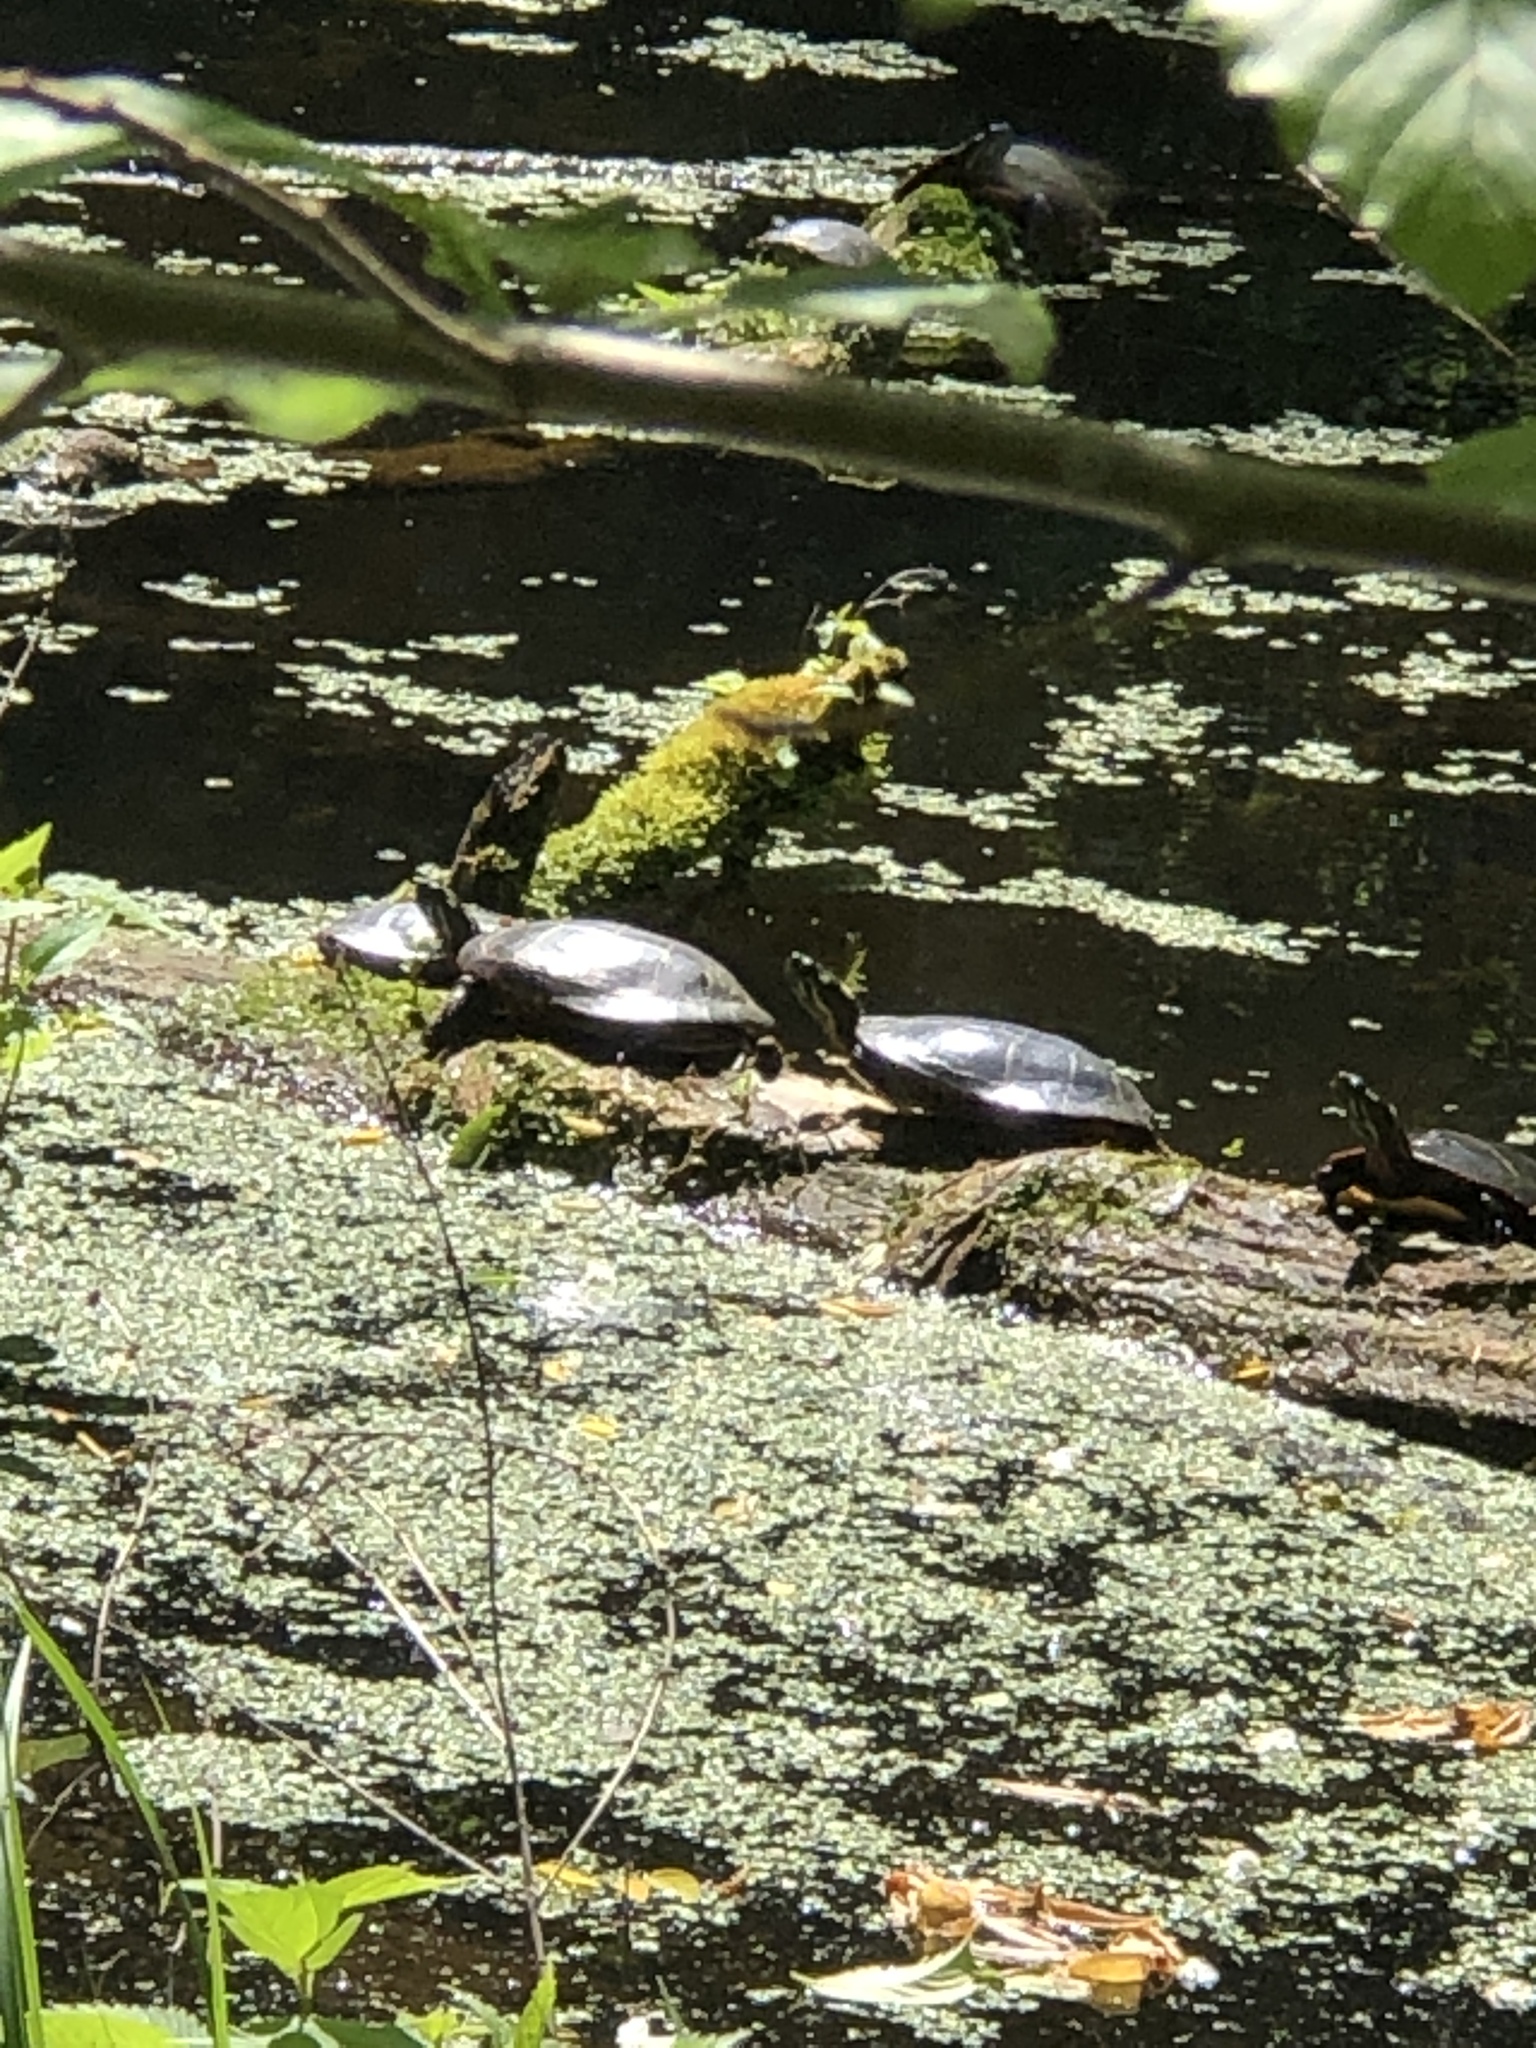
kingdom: Animalia
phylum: Chordata
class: Testudines
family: Emydidae
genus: Chrysemys
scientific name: Chrysemys picta
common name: Painted turtle
